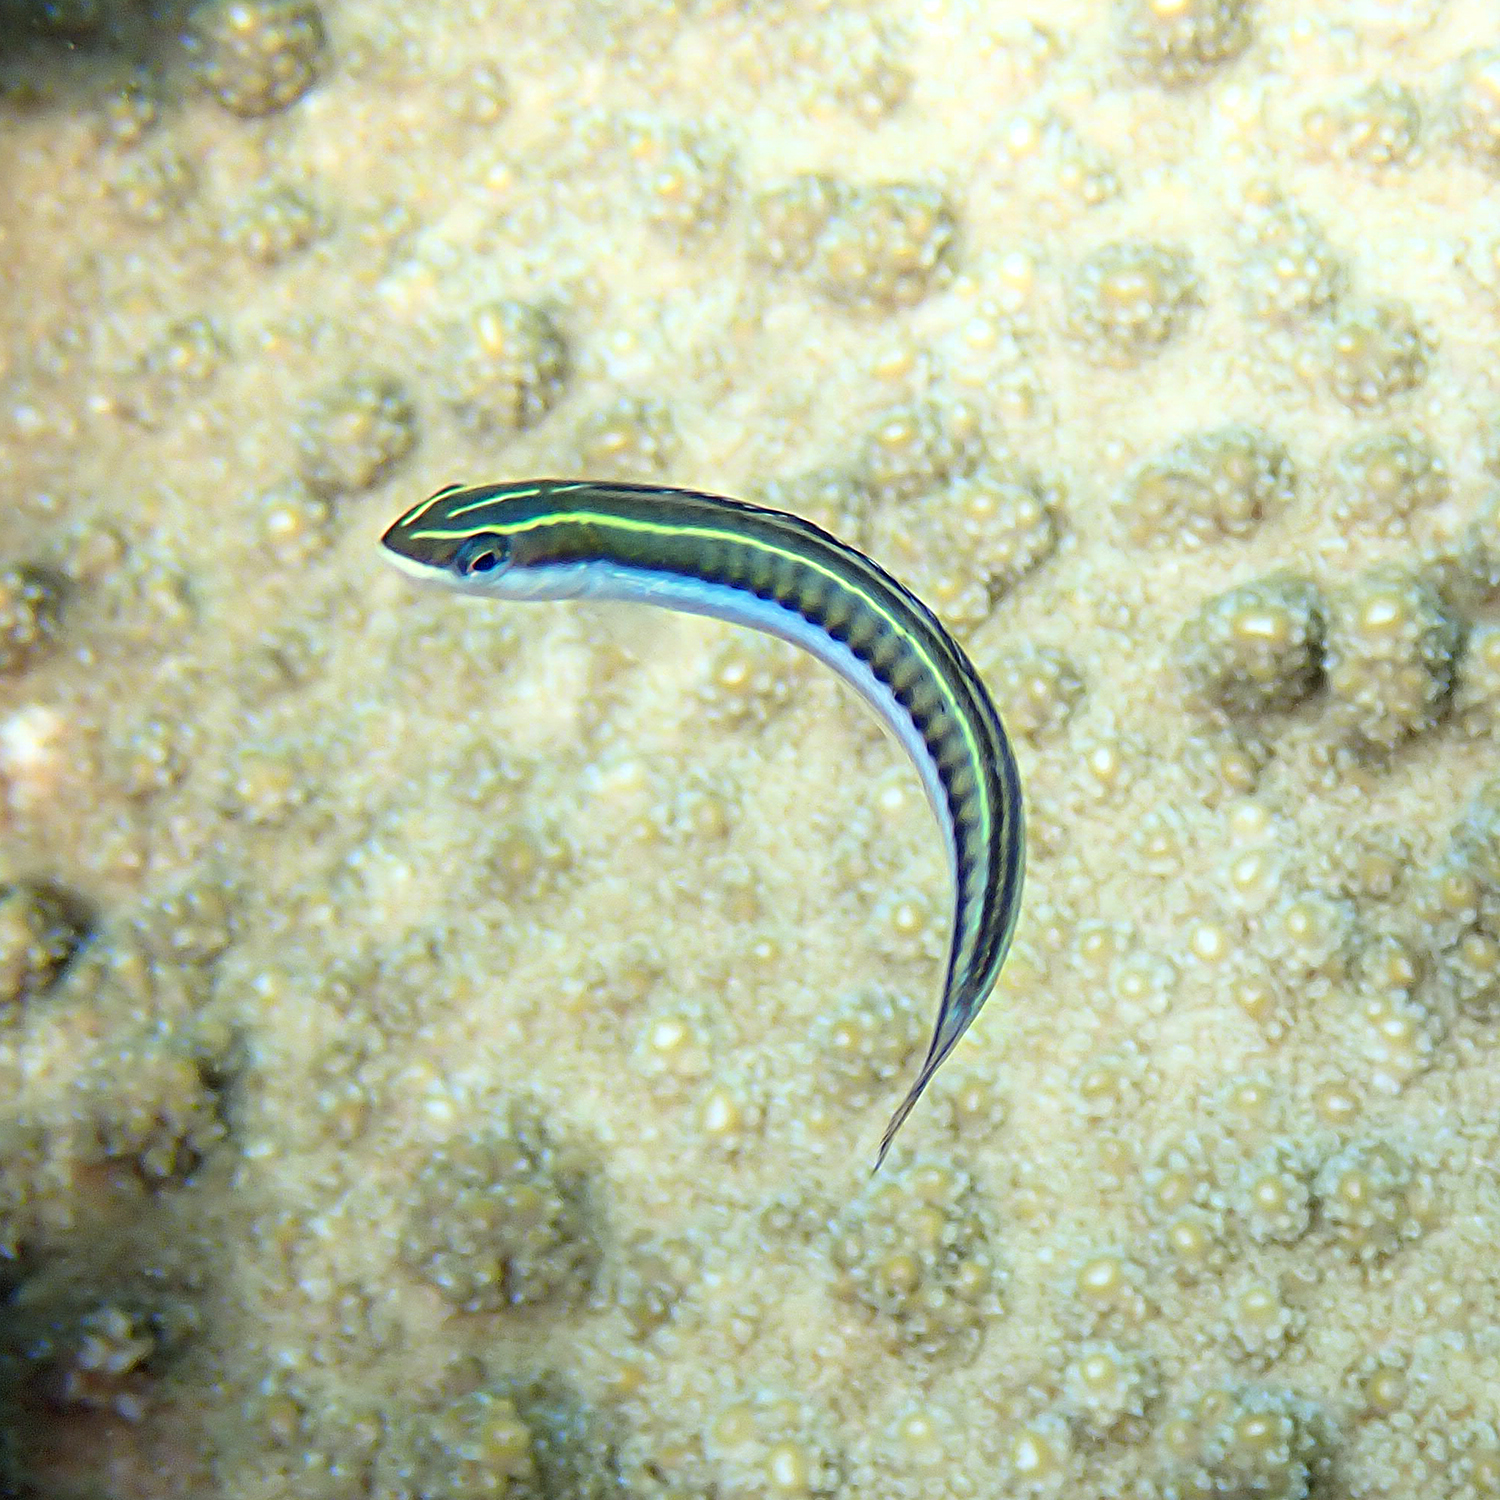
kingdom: Animalia
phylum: Chordata
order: Perciformes
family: Blenniidae
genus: Plagiotremus
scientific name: Plagiotremus tapeinosoma
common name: Hit and run blenny
